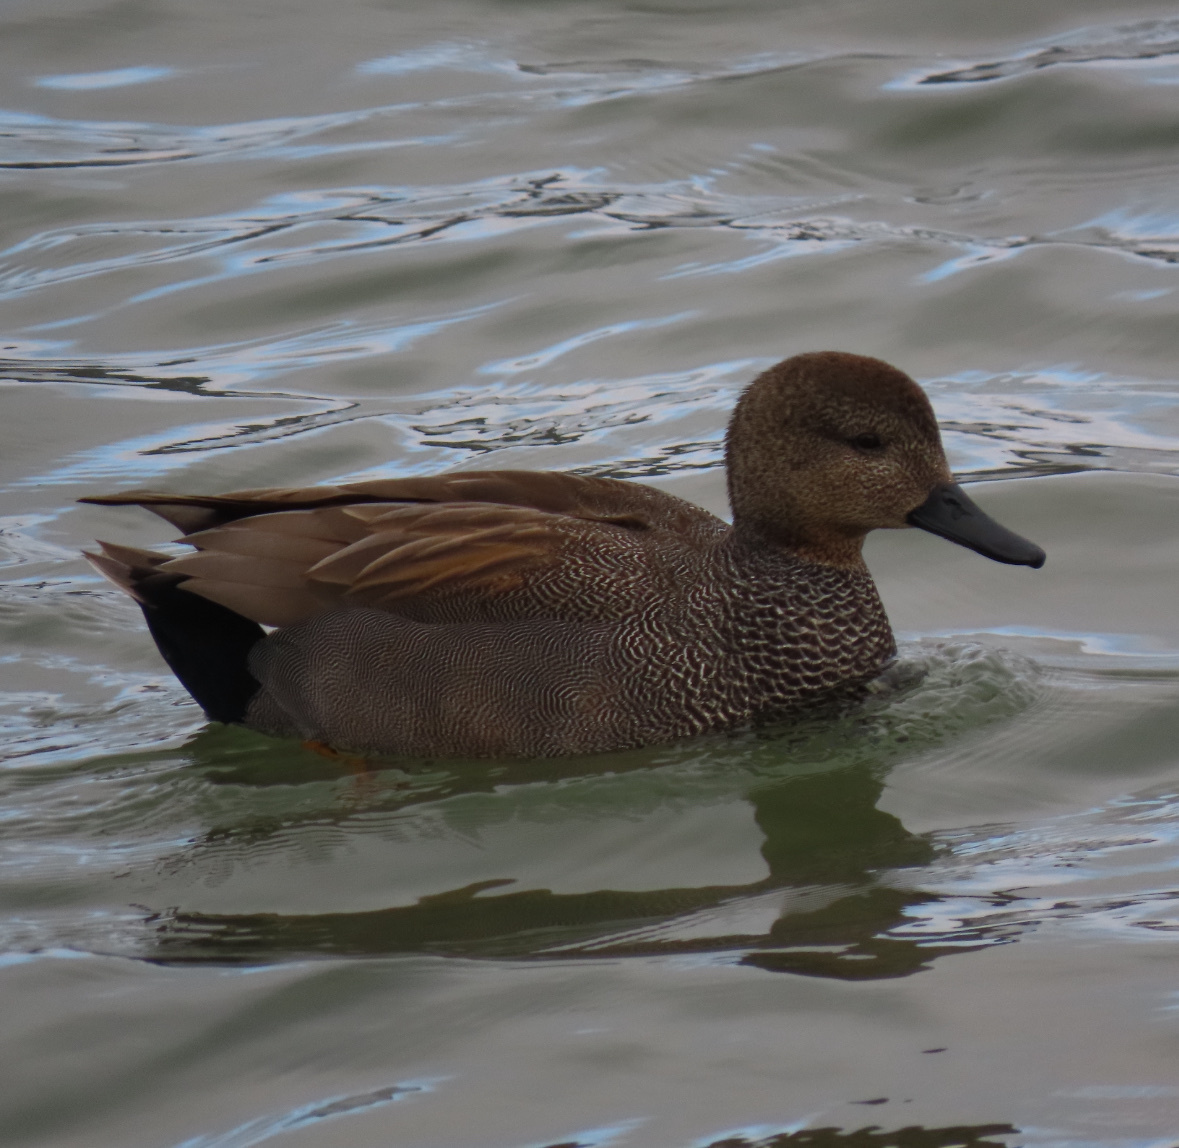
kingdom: Animalia
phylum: Chordata
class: Aves
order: Anseriformes
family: Anatidae
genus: Mareca
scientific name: Mareca strepera
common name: Gadwall
